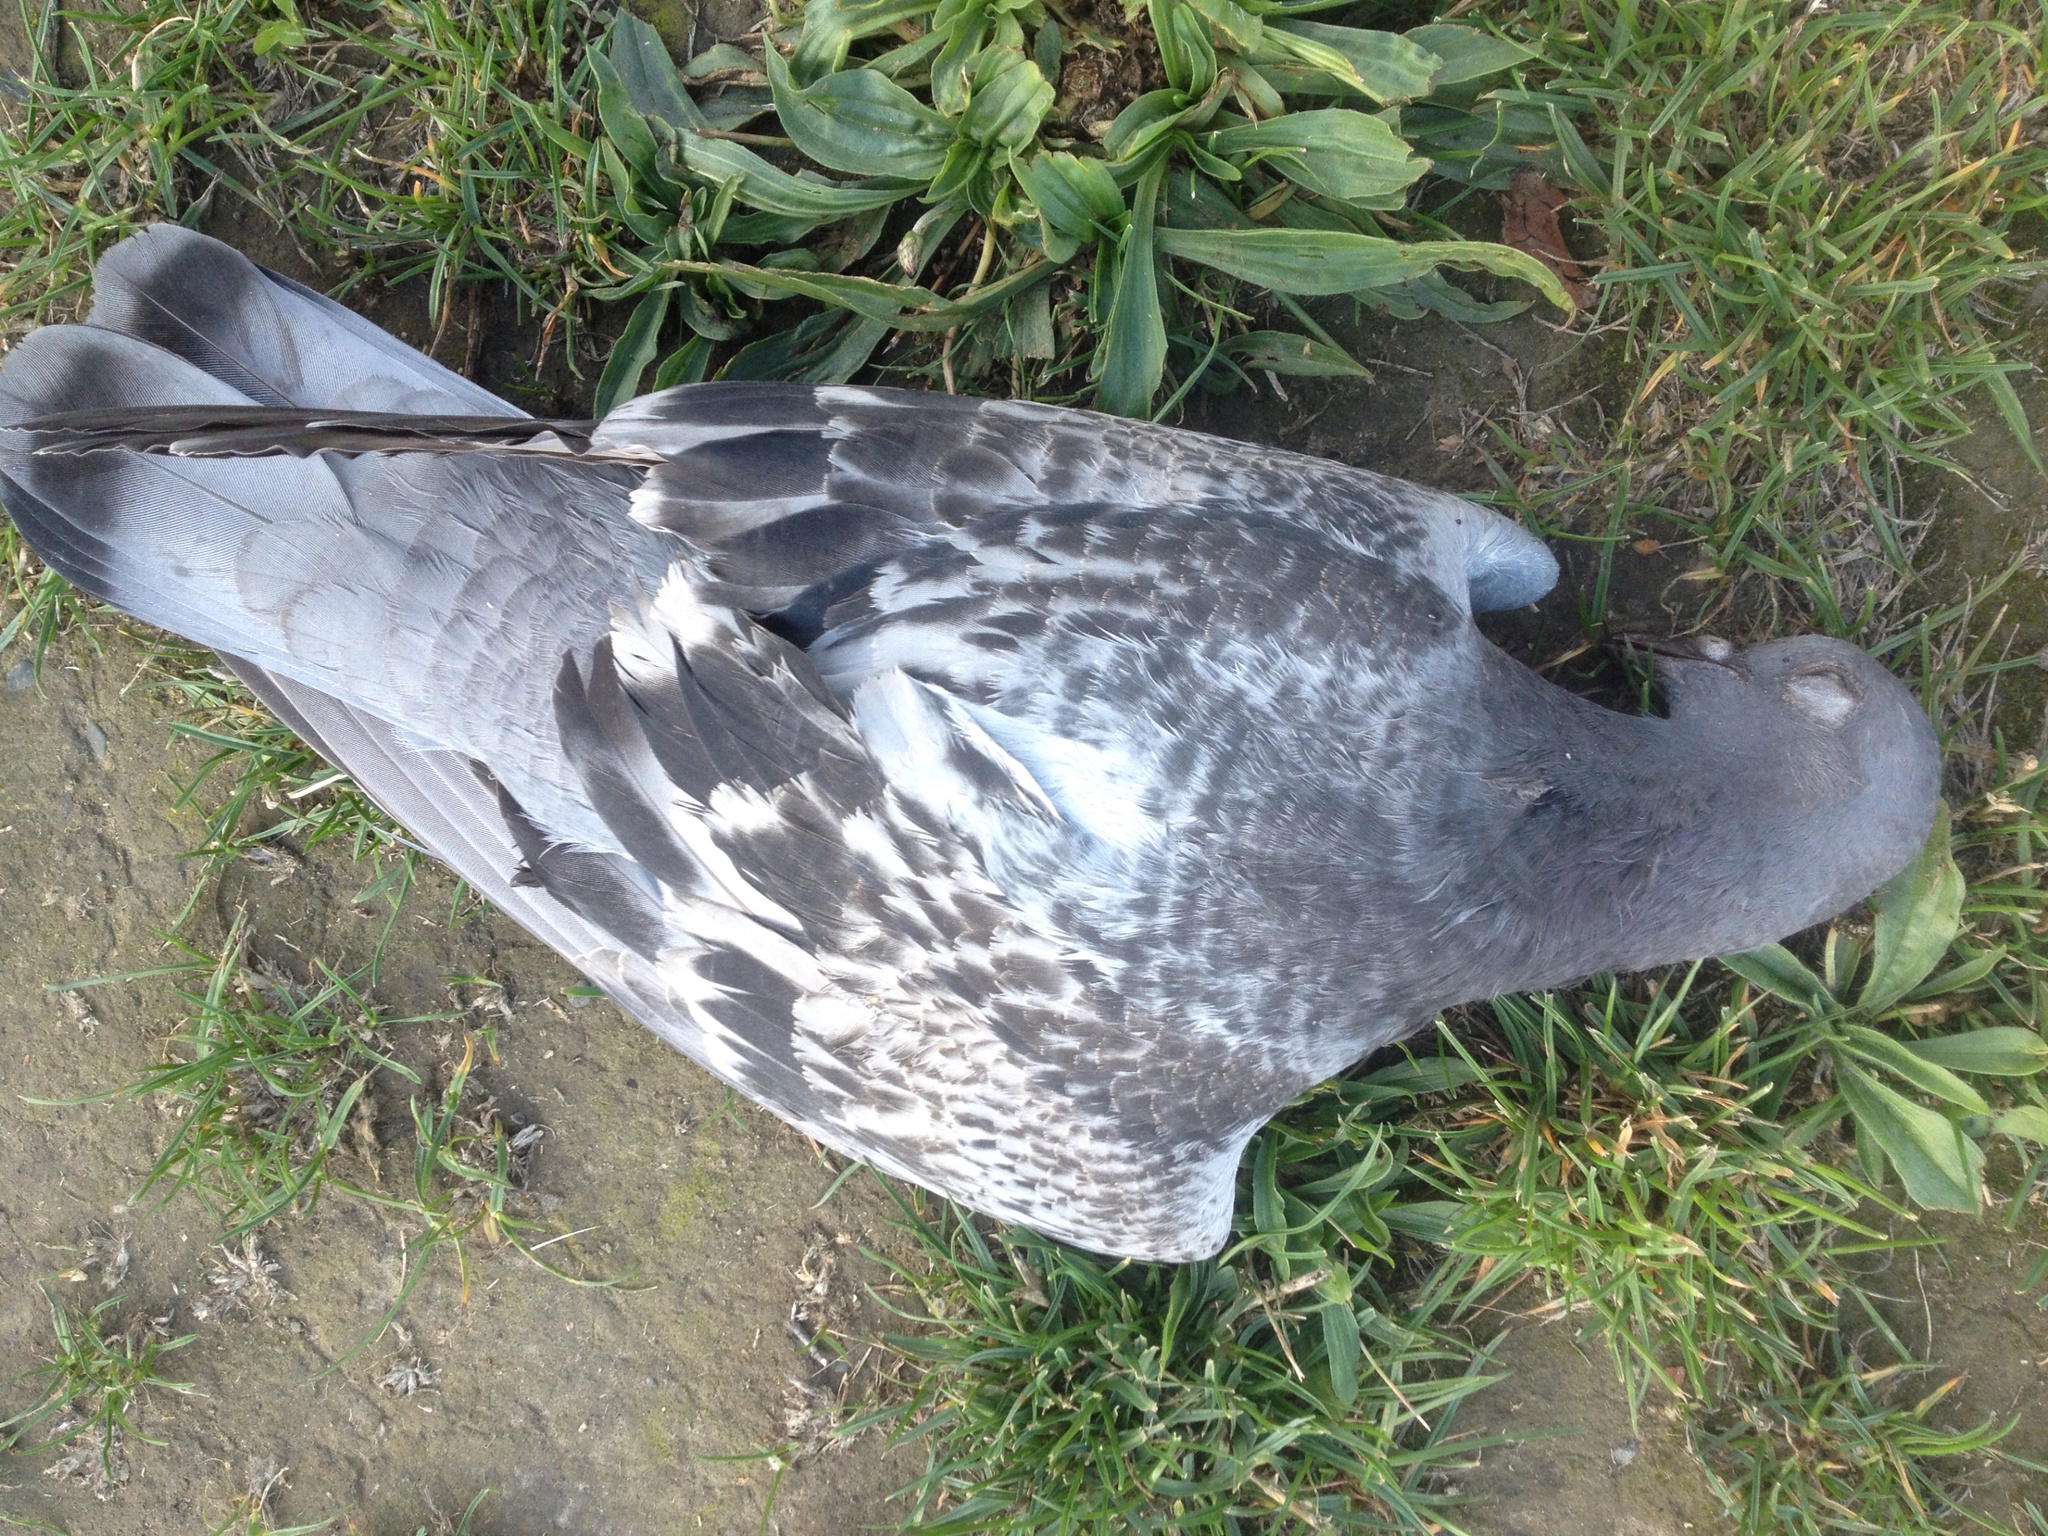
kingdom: Animalia
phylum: Chordata
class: Aves
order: Columbiformes
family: Columbidae
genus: Columba
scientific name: Columba livia
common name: Rock pigeon
